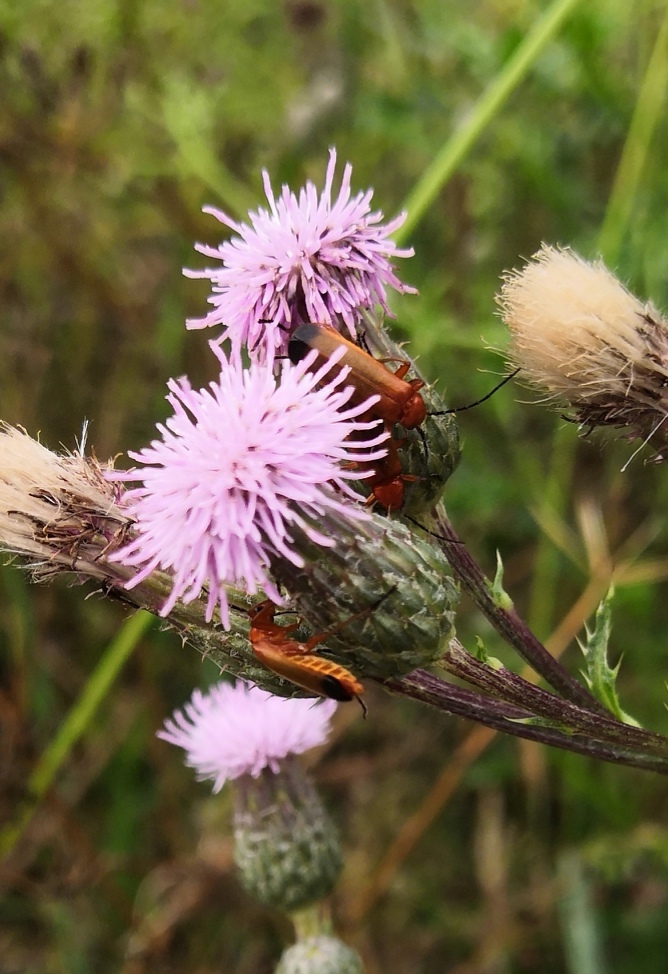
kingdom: Animalia
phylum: Arthropoda
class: Insecta
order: Coleoptera
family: Cantharidae
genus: Rhagonycha
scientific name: Rhagonycha fulva
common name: Common red soldier beetle
